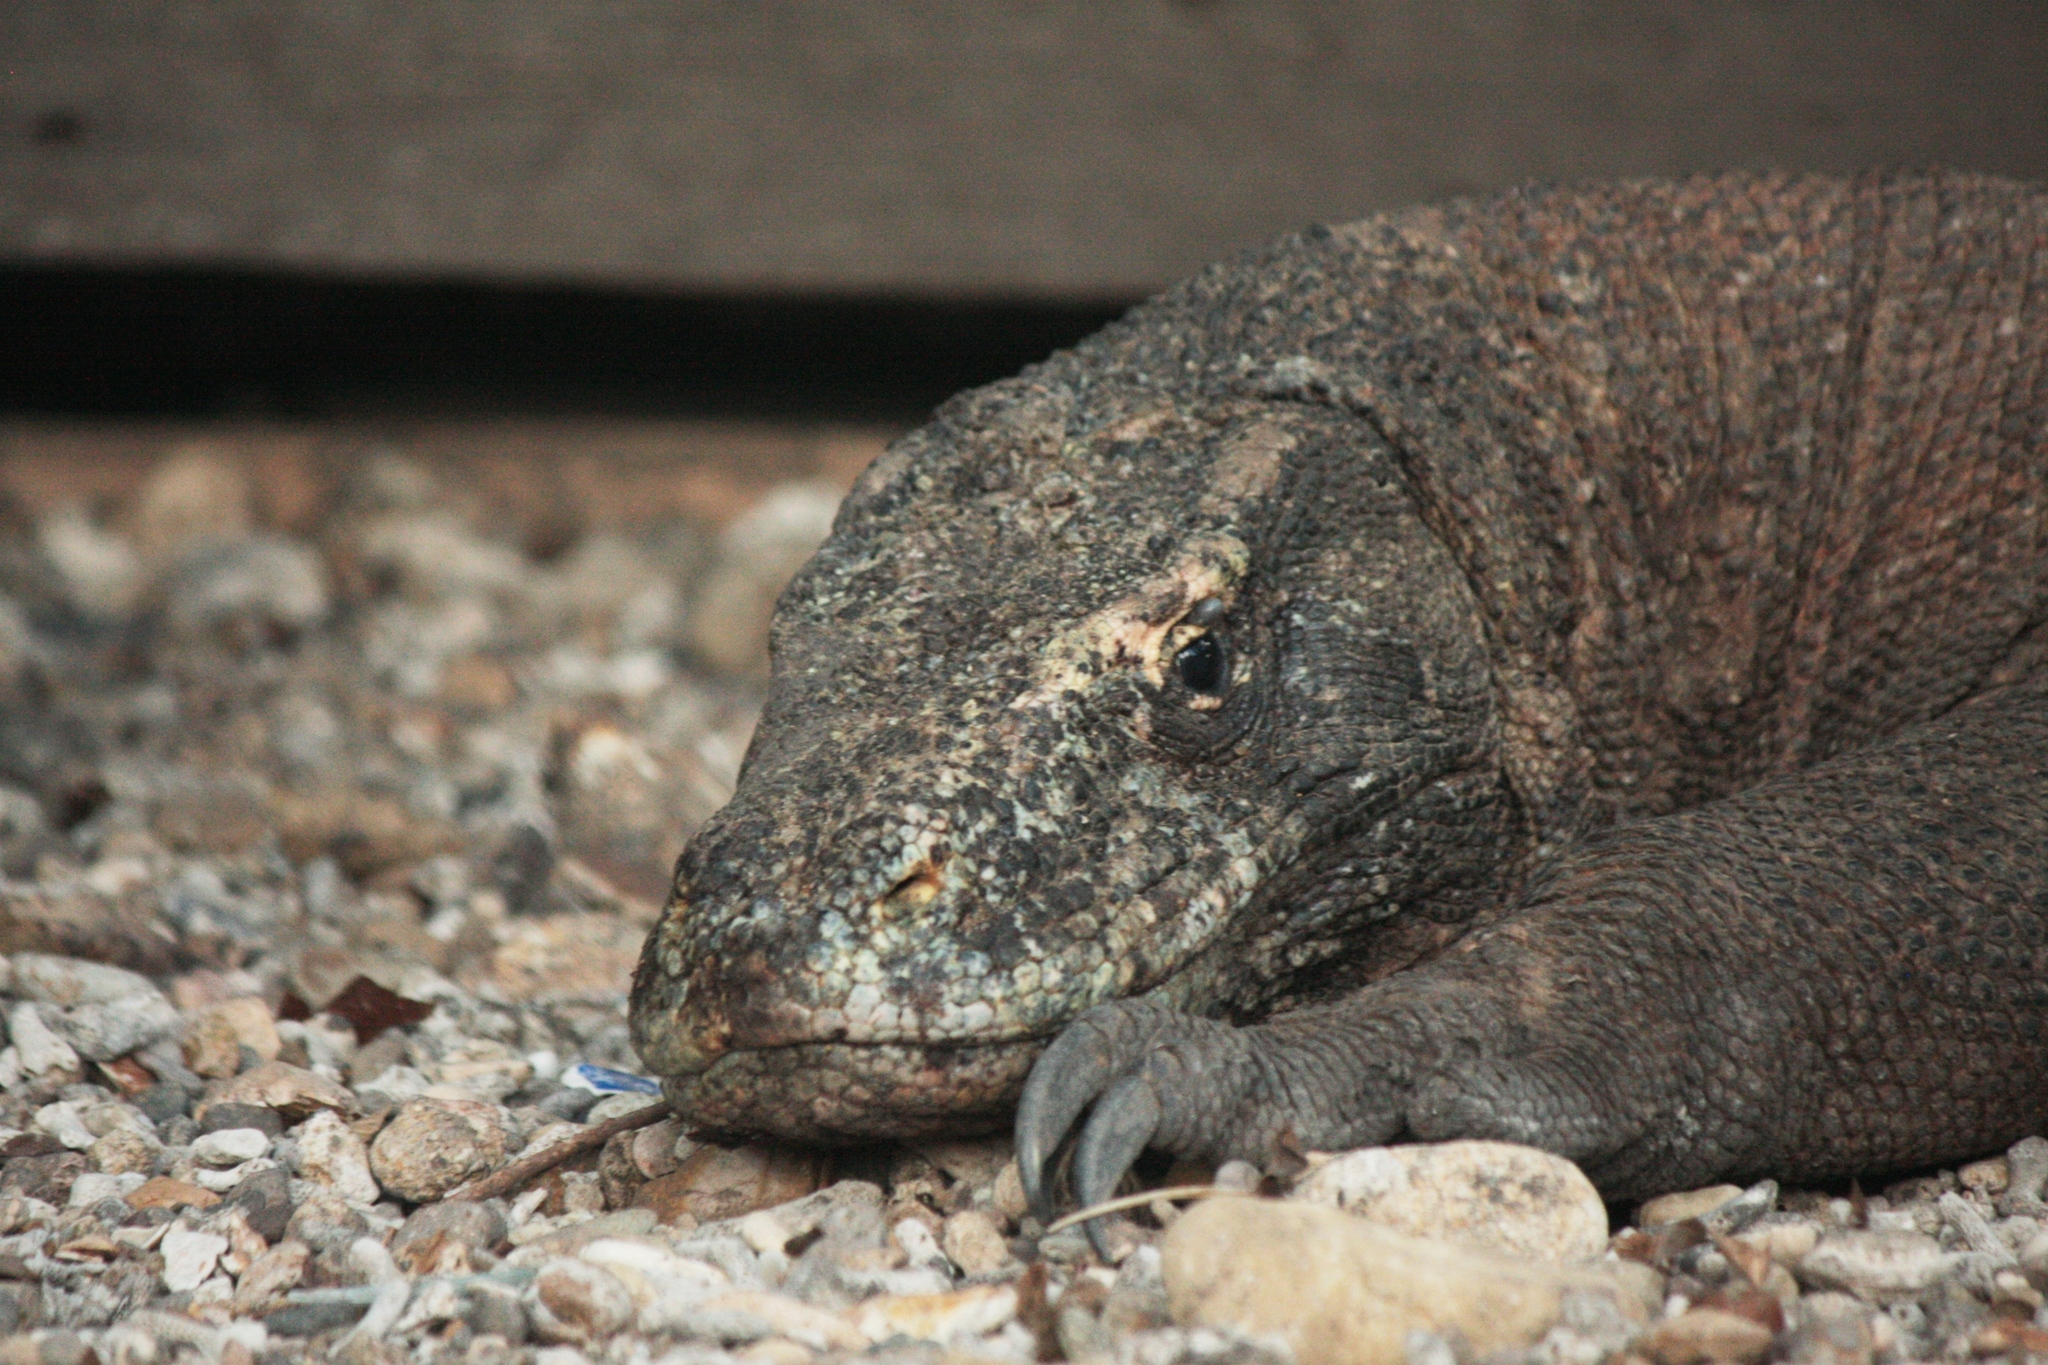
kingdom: Animalia
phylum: Chordata
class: Squamata
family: Varanidae
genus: Varanus
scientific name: Varanus komodoensis
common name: Komodo dragon
